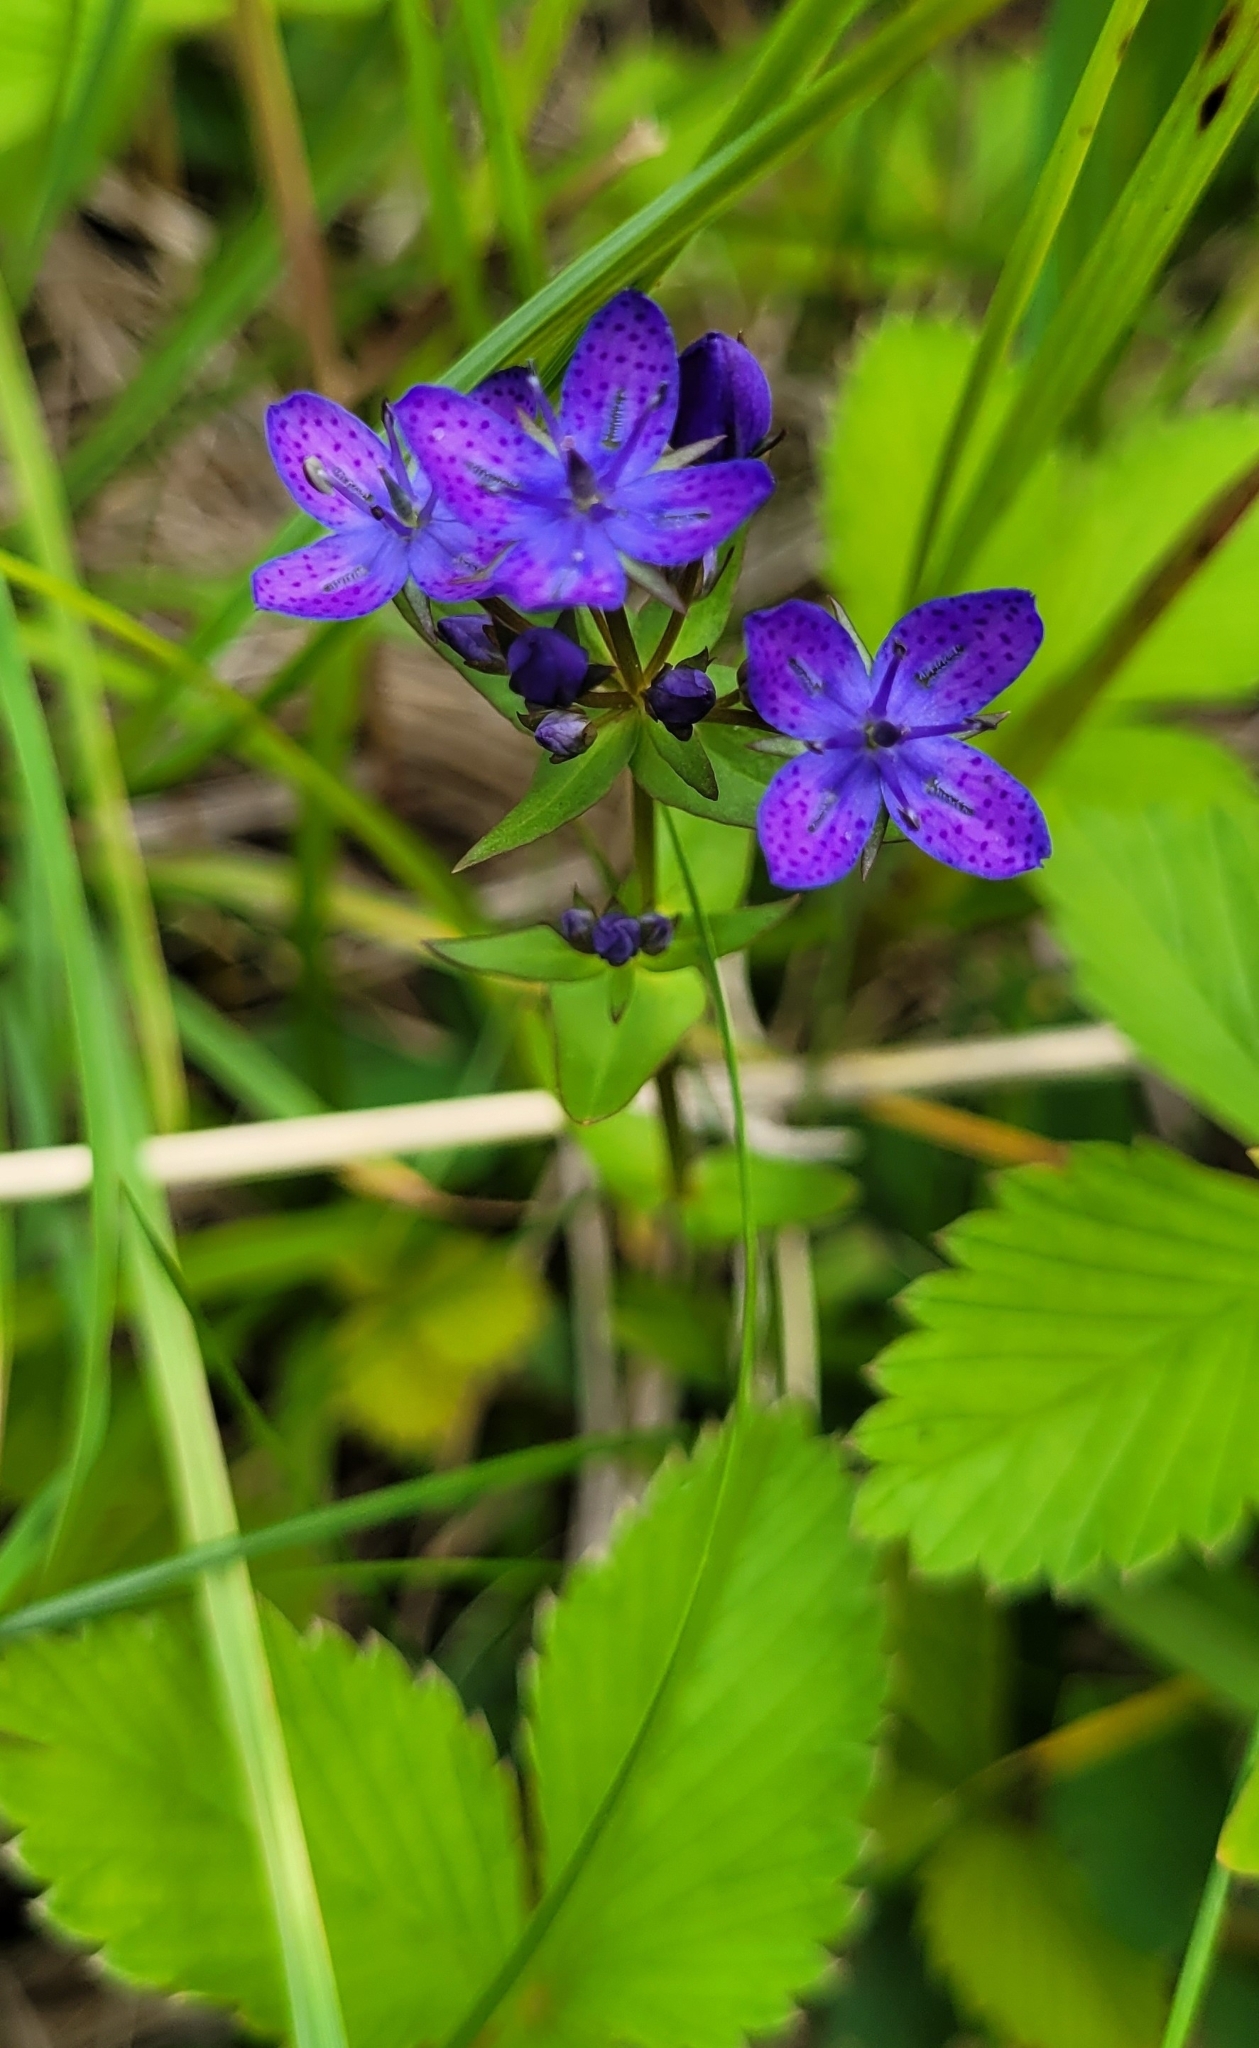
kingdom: Plantae
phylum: Tracheophyta
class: Magnoliopsida
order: Gentianales
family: Gentianaceae
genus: Swertia
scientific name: Swertia tetrapetala
